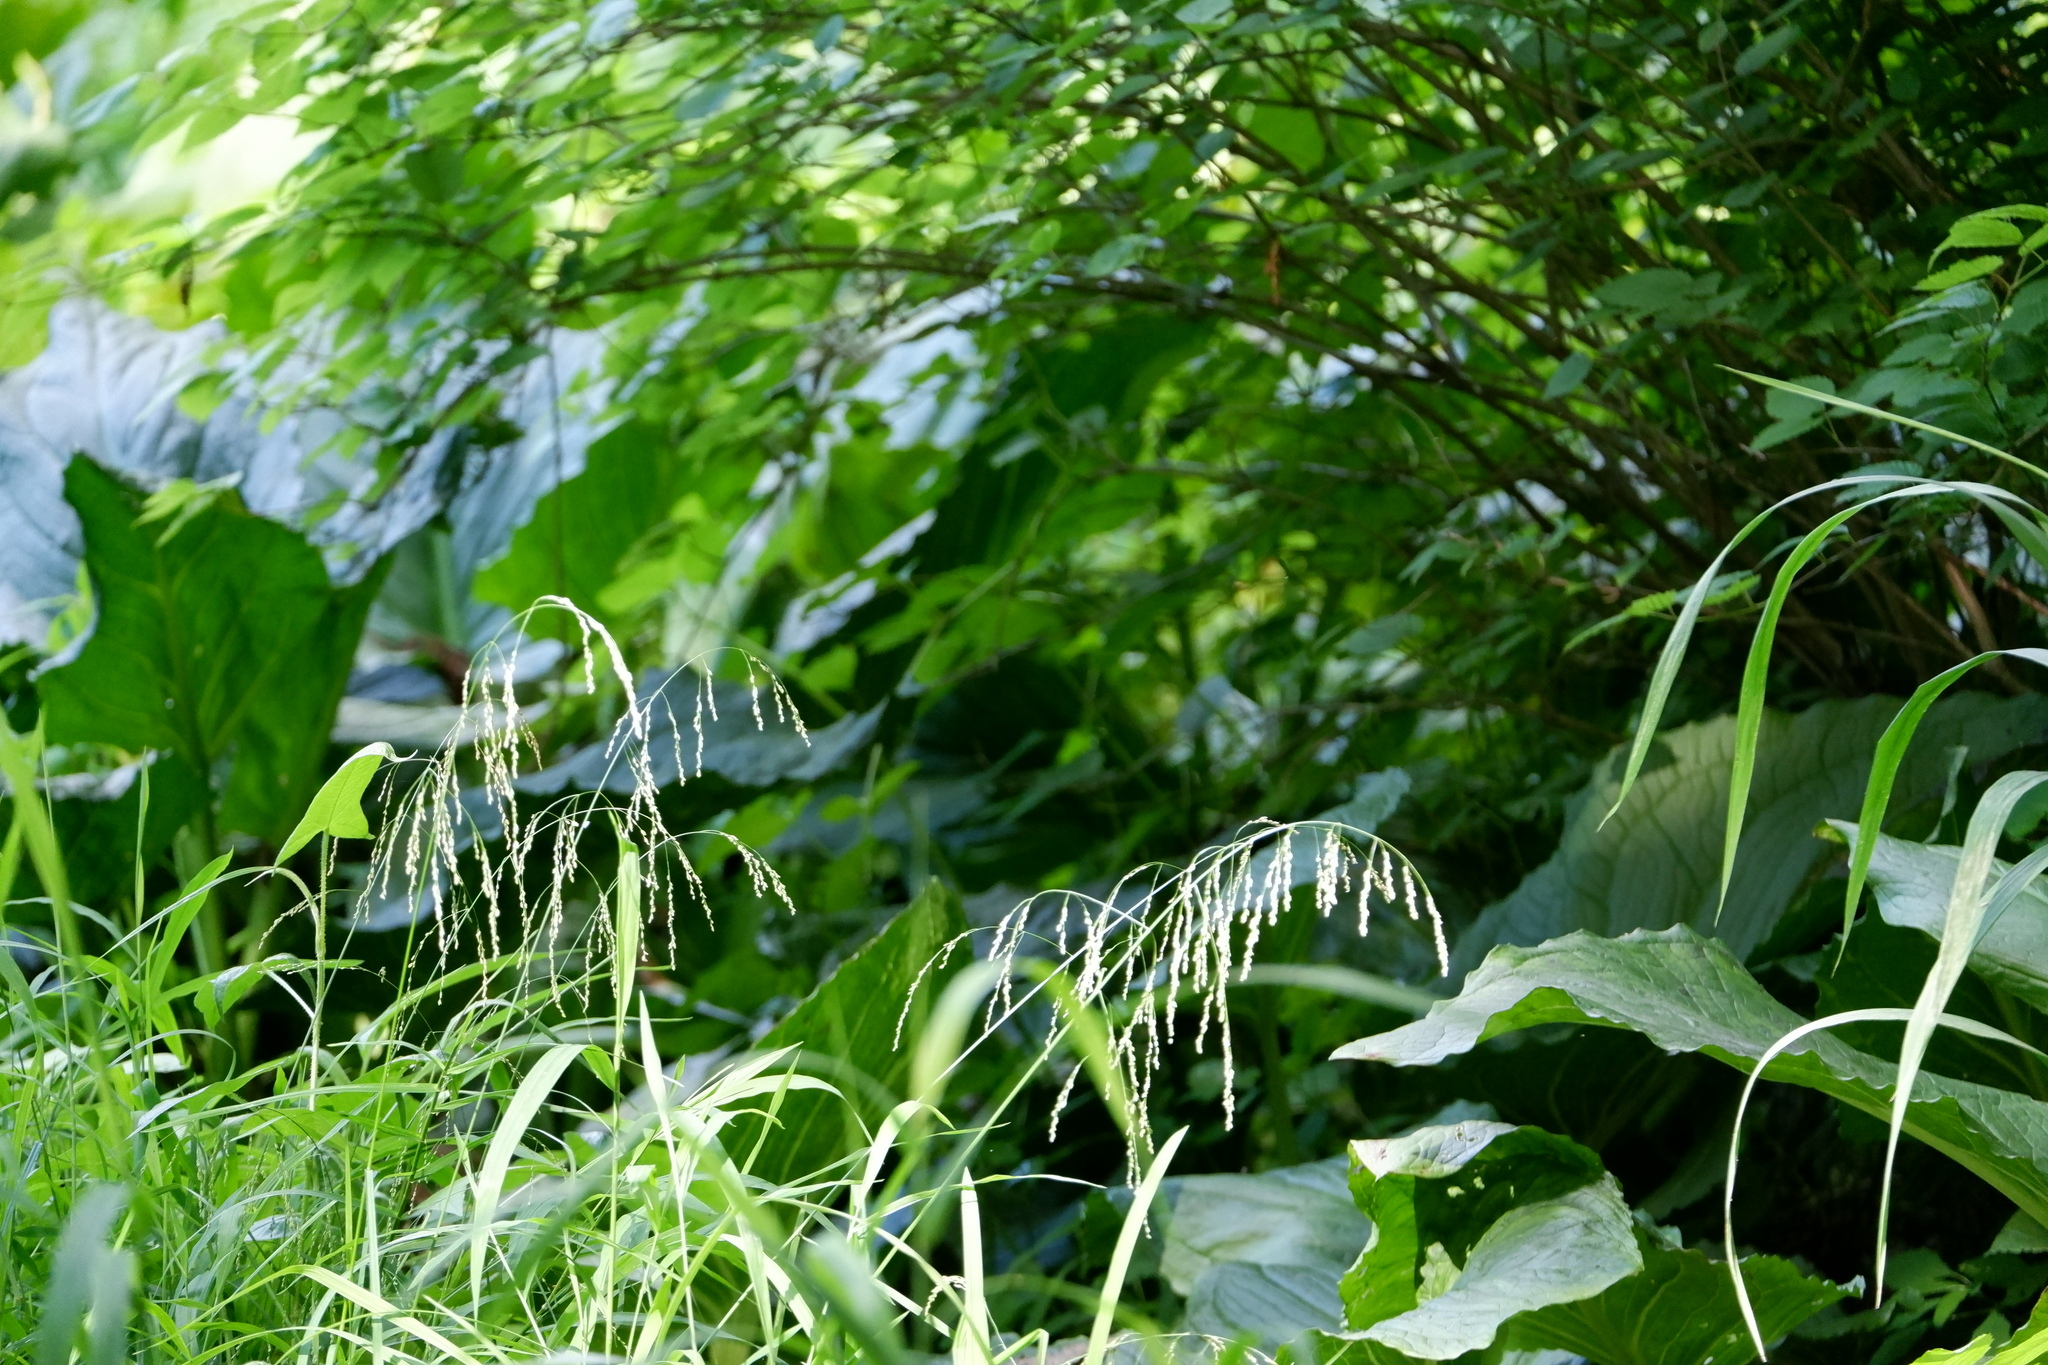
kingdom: Plantae
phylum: Tracheophyta
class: Liliopsida
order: Poales
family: Poaceae
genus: Glyceria
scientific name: Glyceria striata
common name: Fowl manna grass
